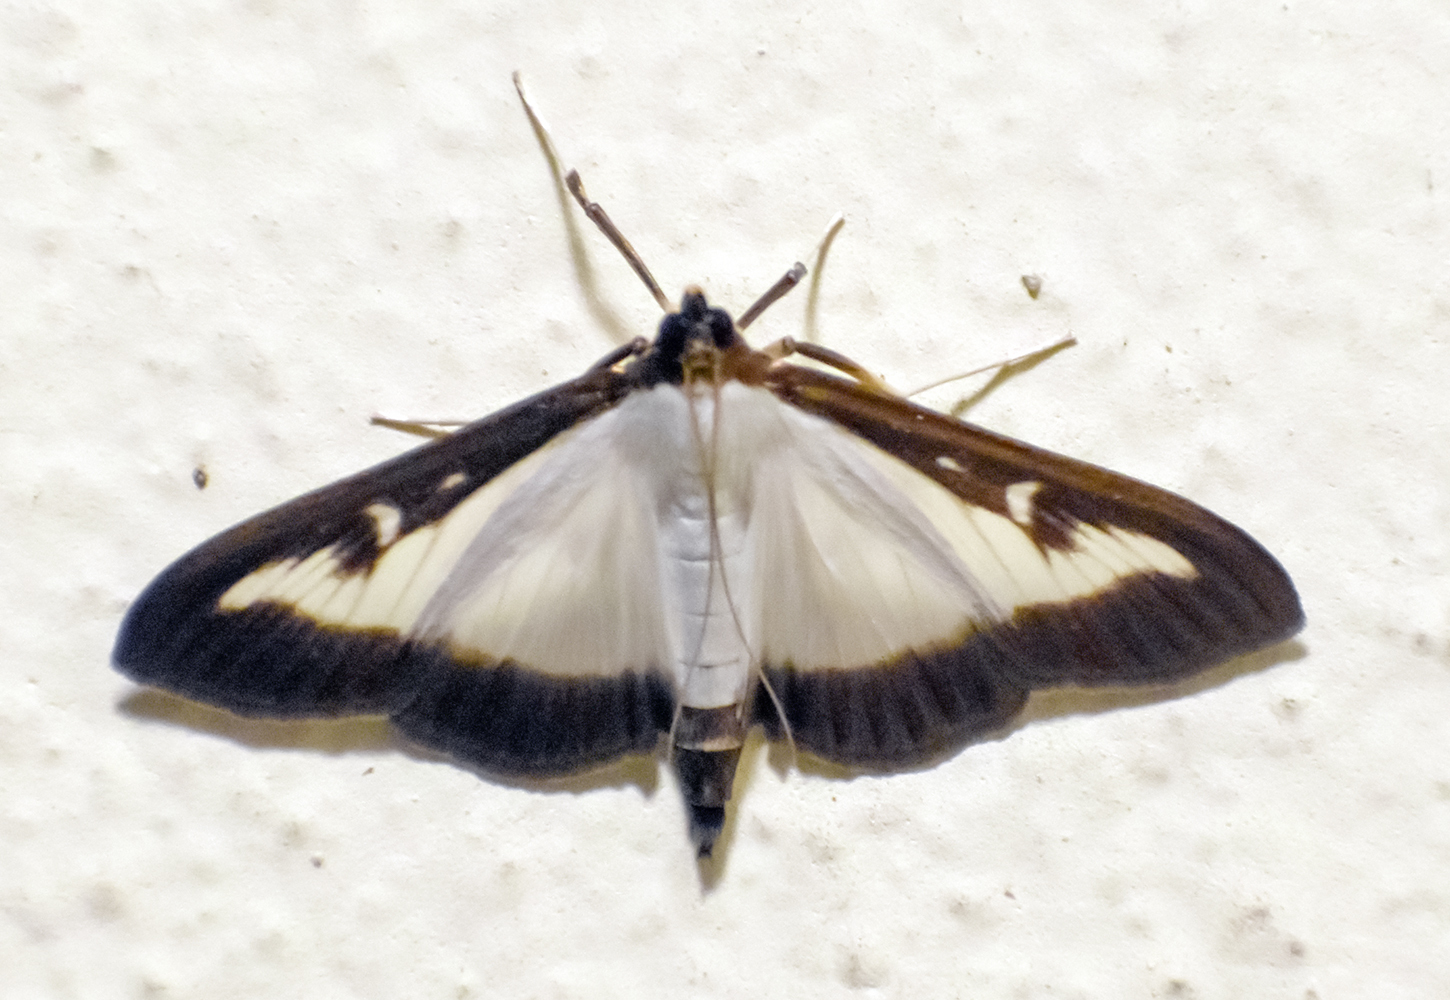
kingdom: Animalia
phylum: Arthropoda
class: Insecta
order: Lepidoptera
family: Crambidae
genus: Cydalima
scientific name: Cydalima perspectalis
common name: Box tree moth
